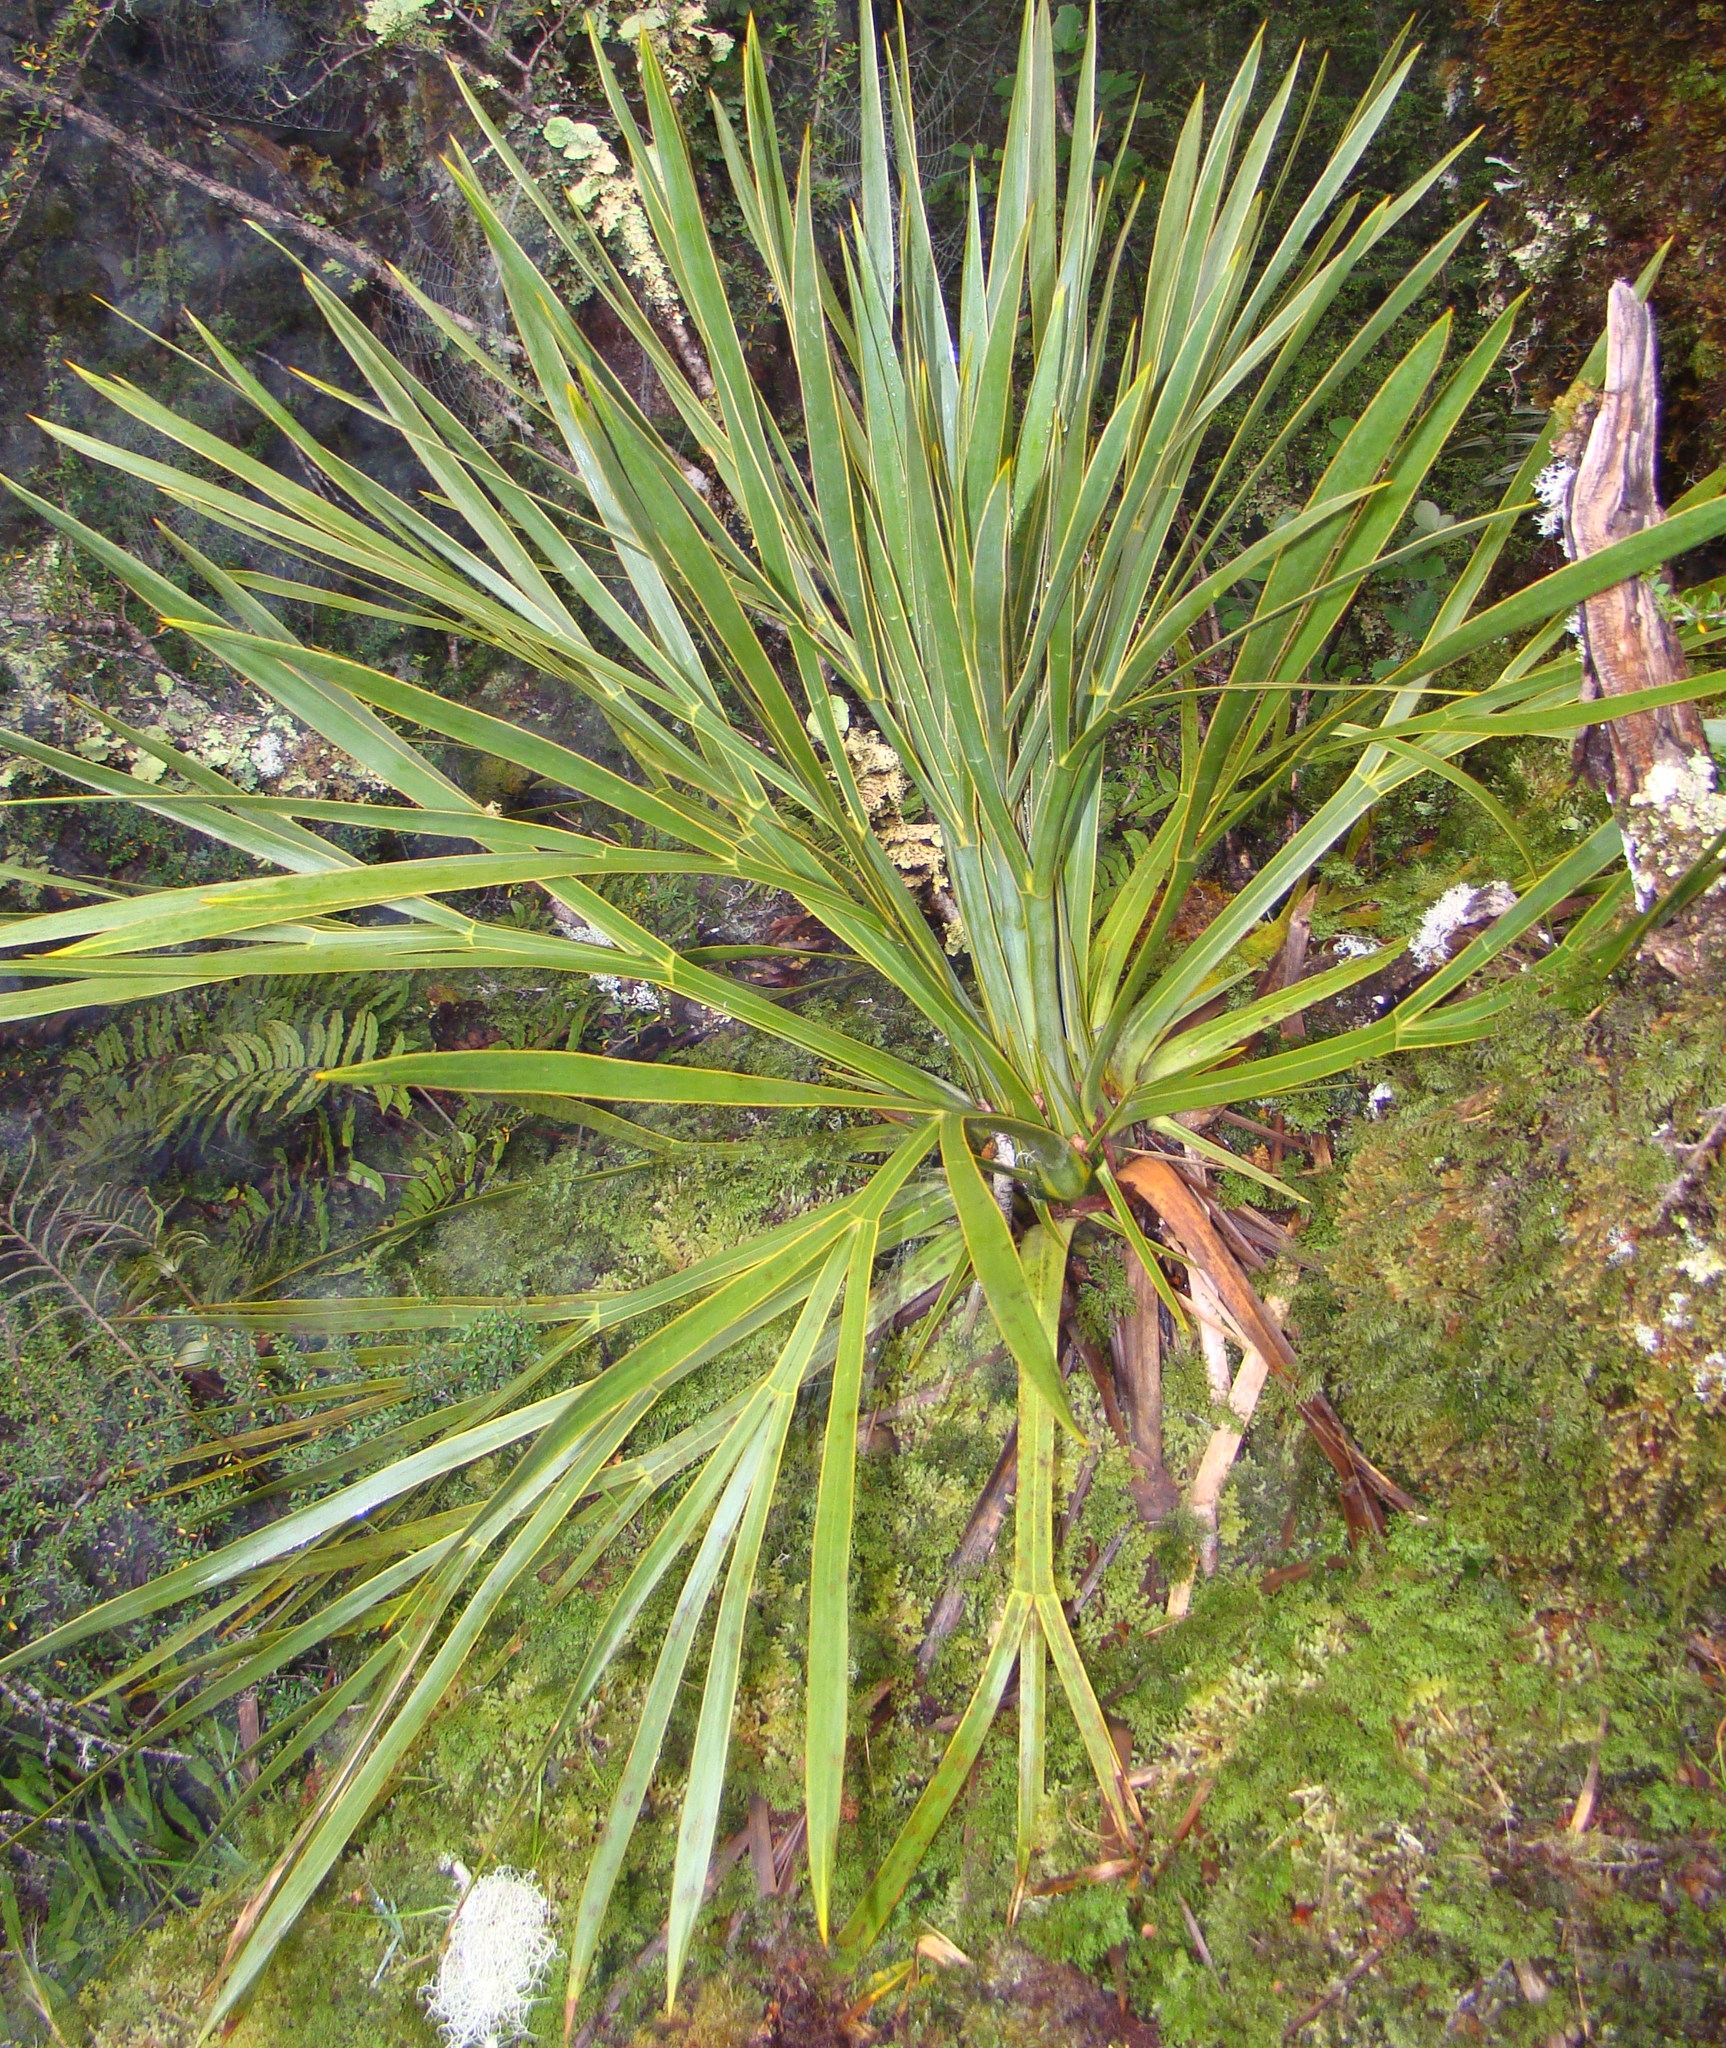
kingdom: Plantae
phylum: Tracheophyta
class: Magnoliopsida
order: Apiales
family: Apiaceae
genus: Aciphylla
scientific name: Aciphylla horrida
